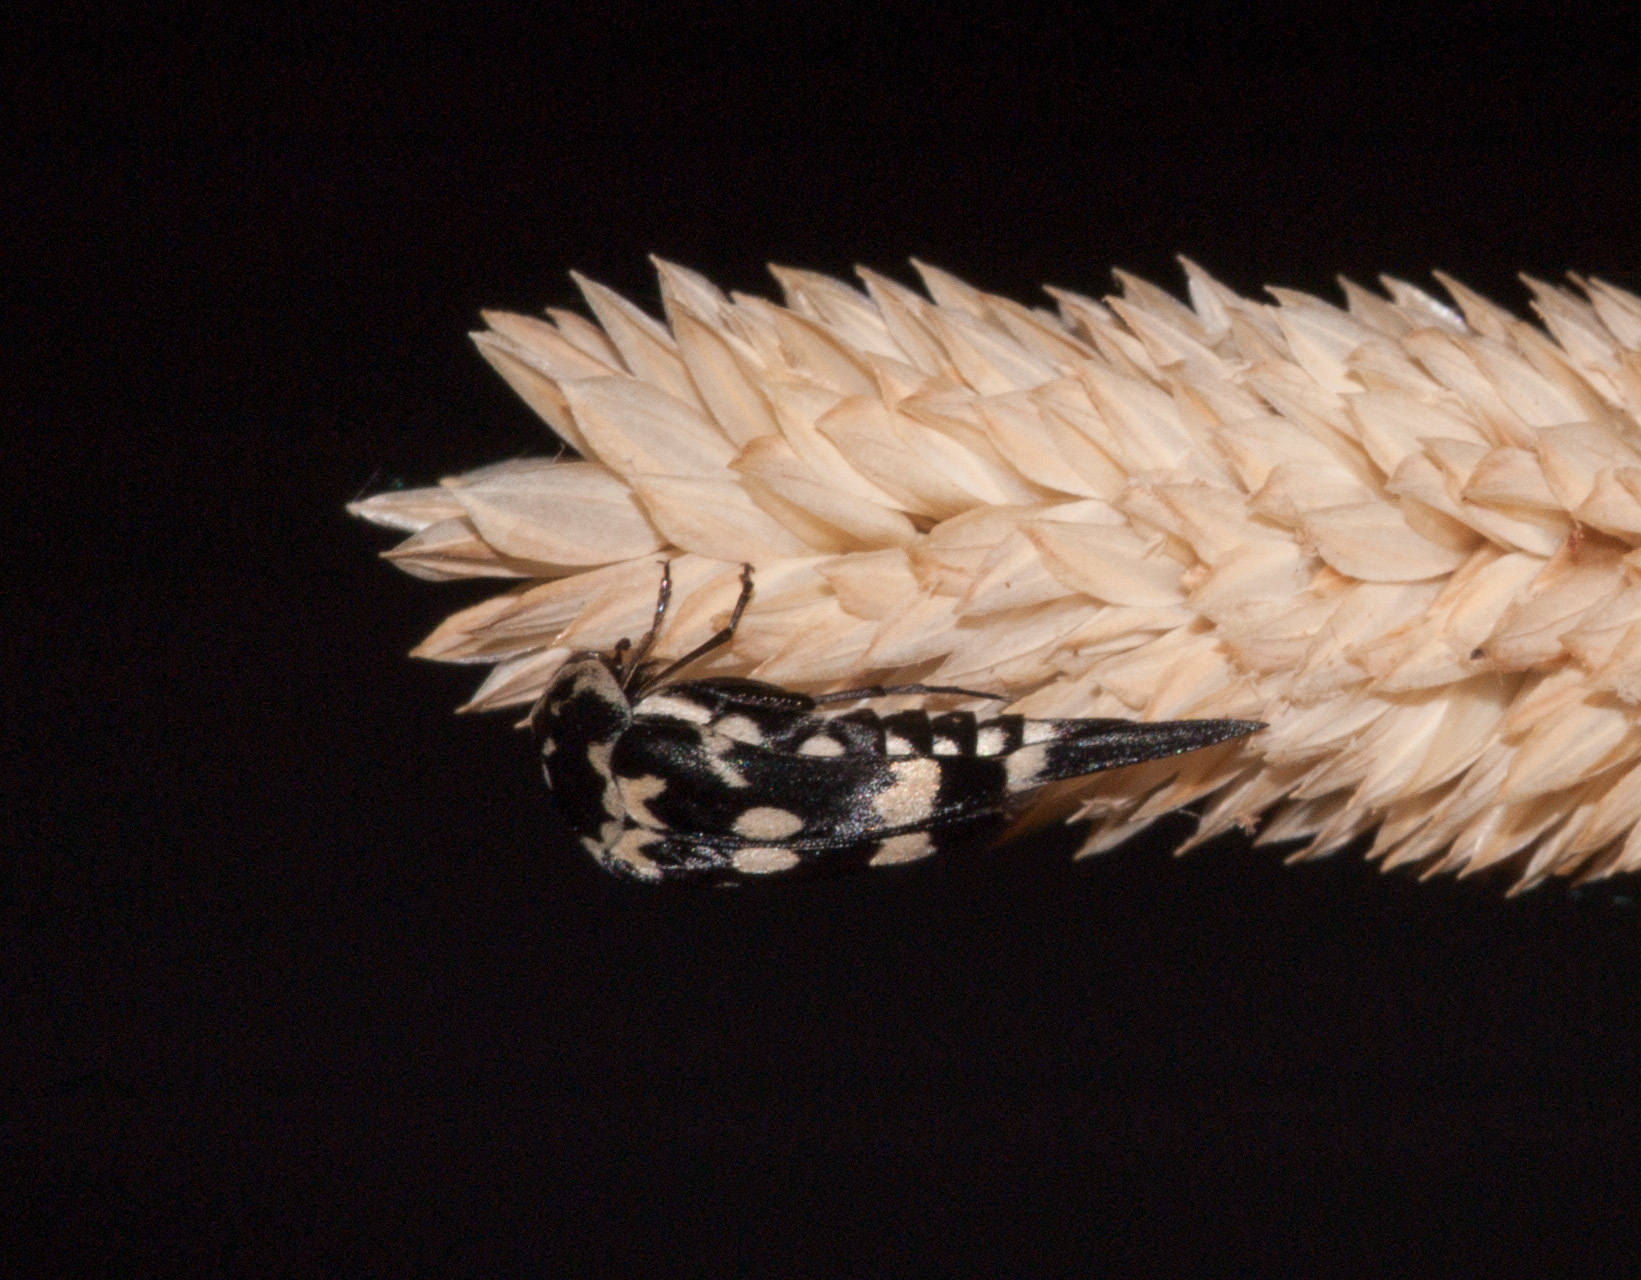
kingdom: Animalia
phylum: Arthropoda
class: Insecta
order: Coleoptera
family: Mordellidae
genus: Hoshihananomia
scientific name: Hoshihananomia
